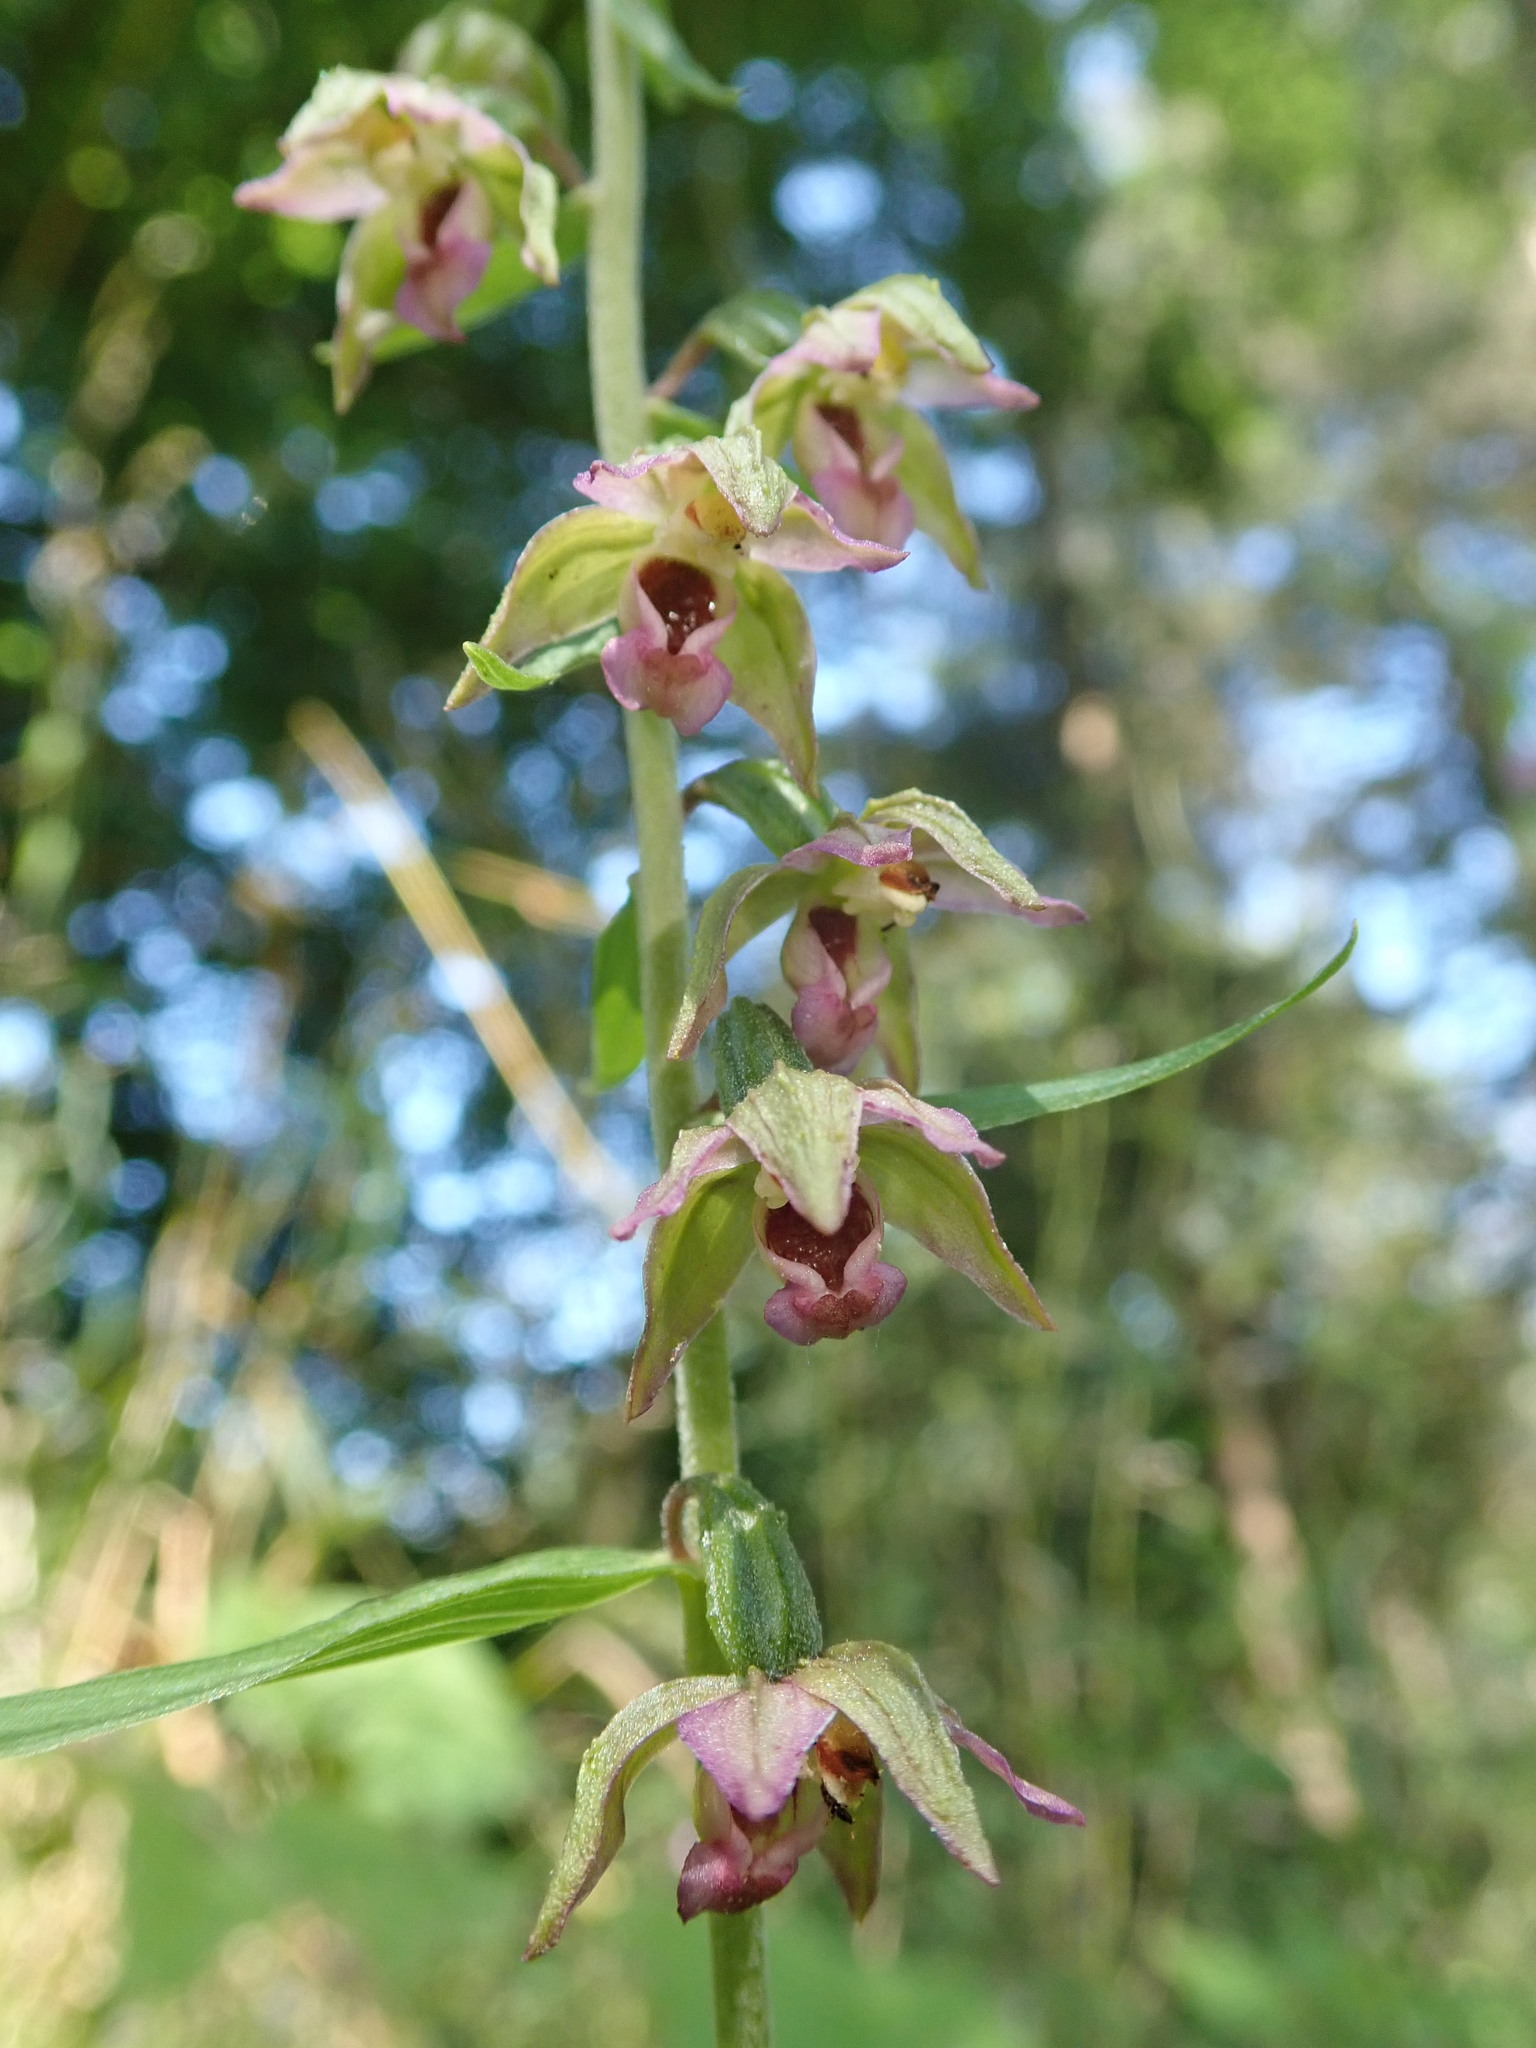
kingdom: Plantae
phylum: Tracheophyta
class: Liliopsida
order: Asparagales
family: Orchidaceae
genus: Epipactis
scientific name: Epipactis helleborine
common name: Broad-leaved helleborine
